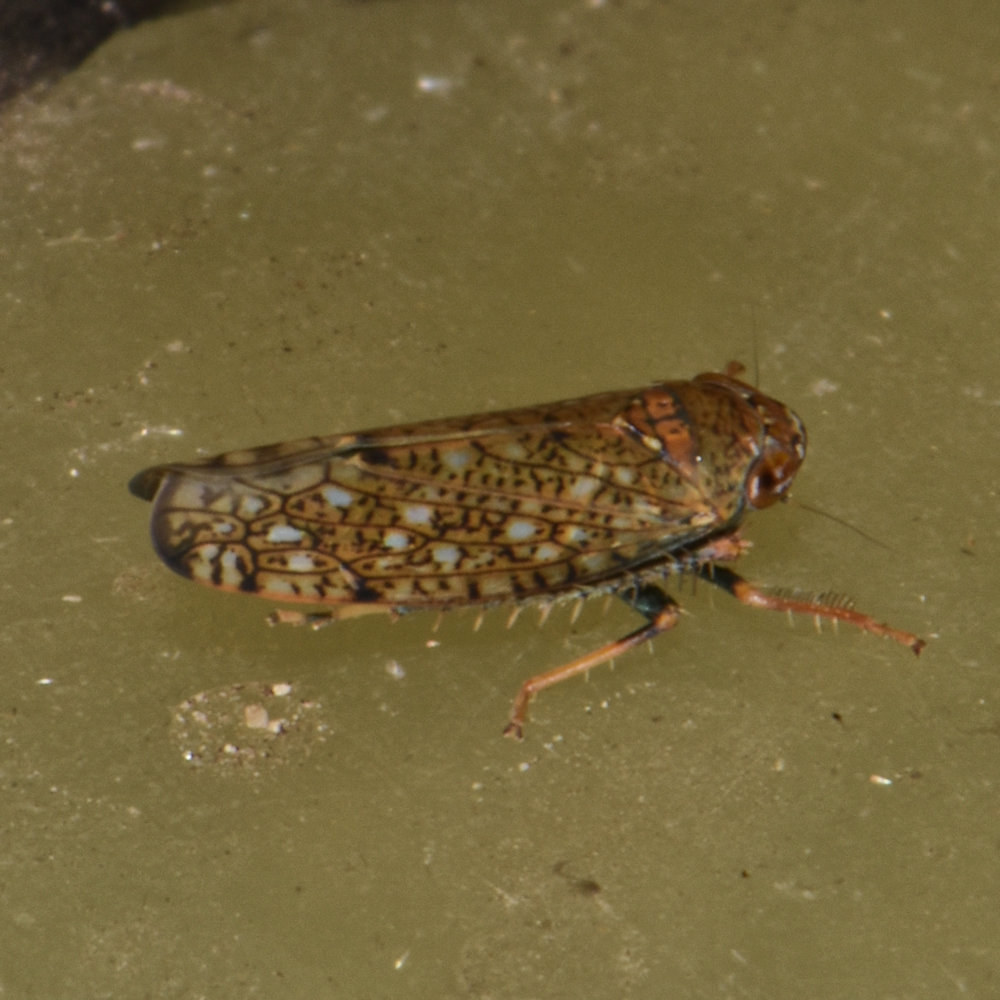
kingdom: Animalia
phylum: Arthropoda
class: Insecta
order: Hemiptera
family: Cicadellidae
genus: Orientus
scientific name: Orientus ishidae
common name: Japanese leafhopper
